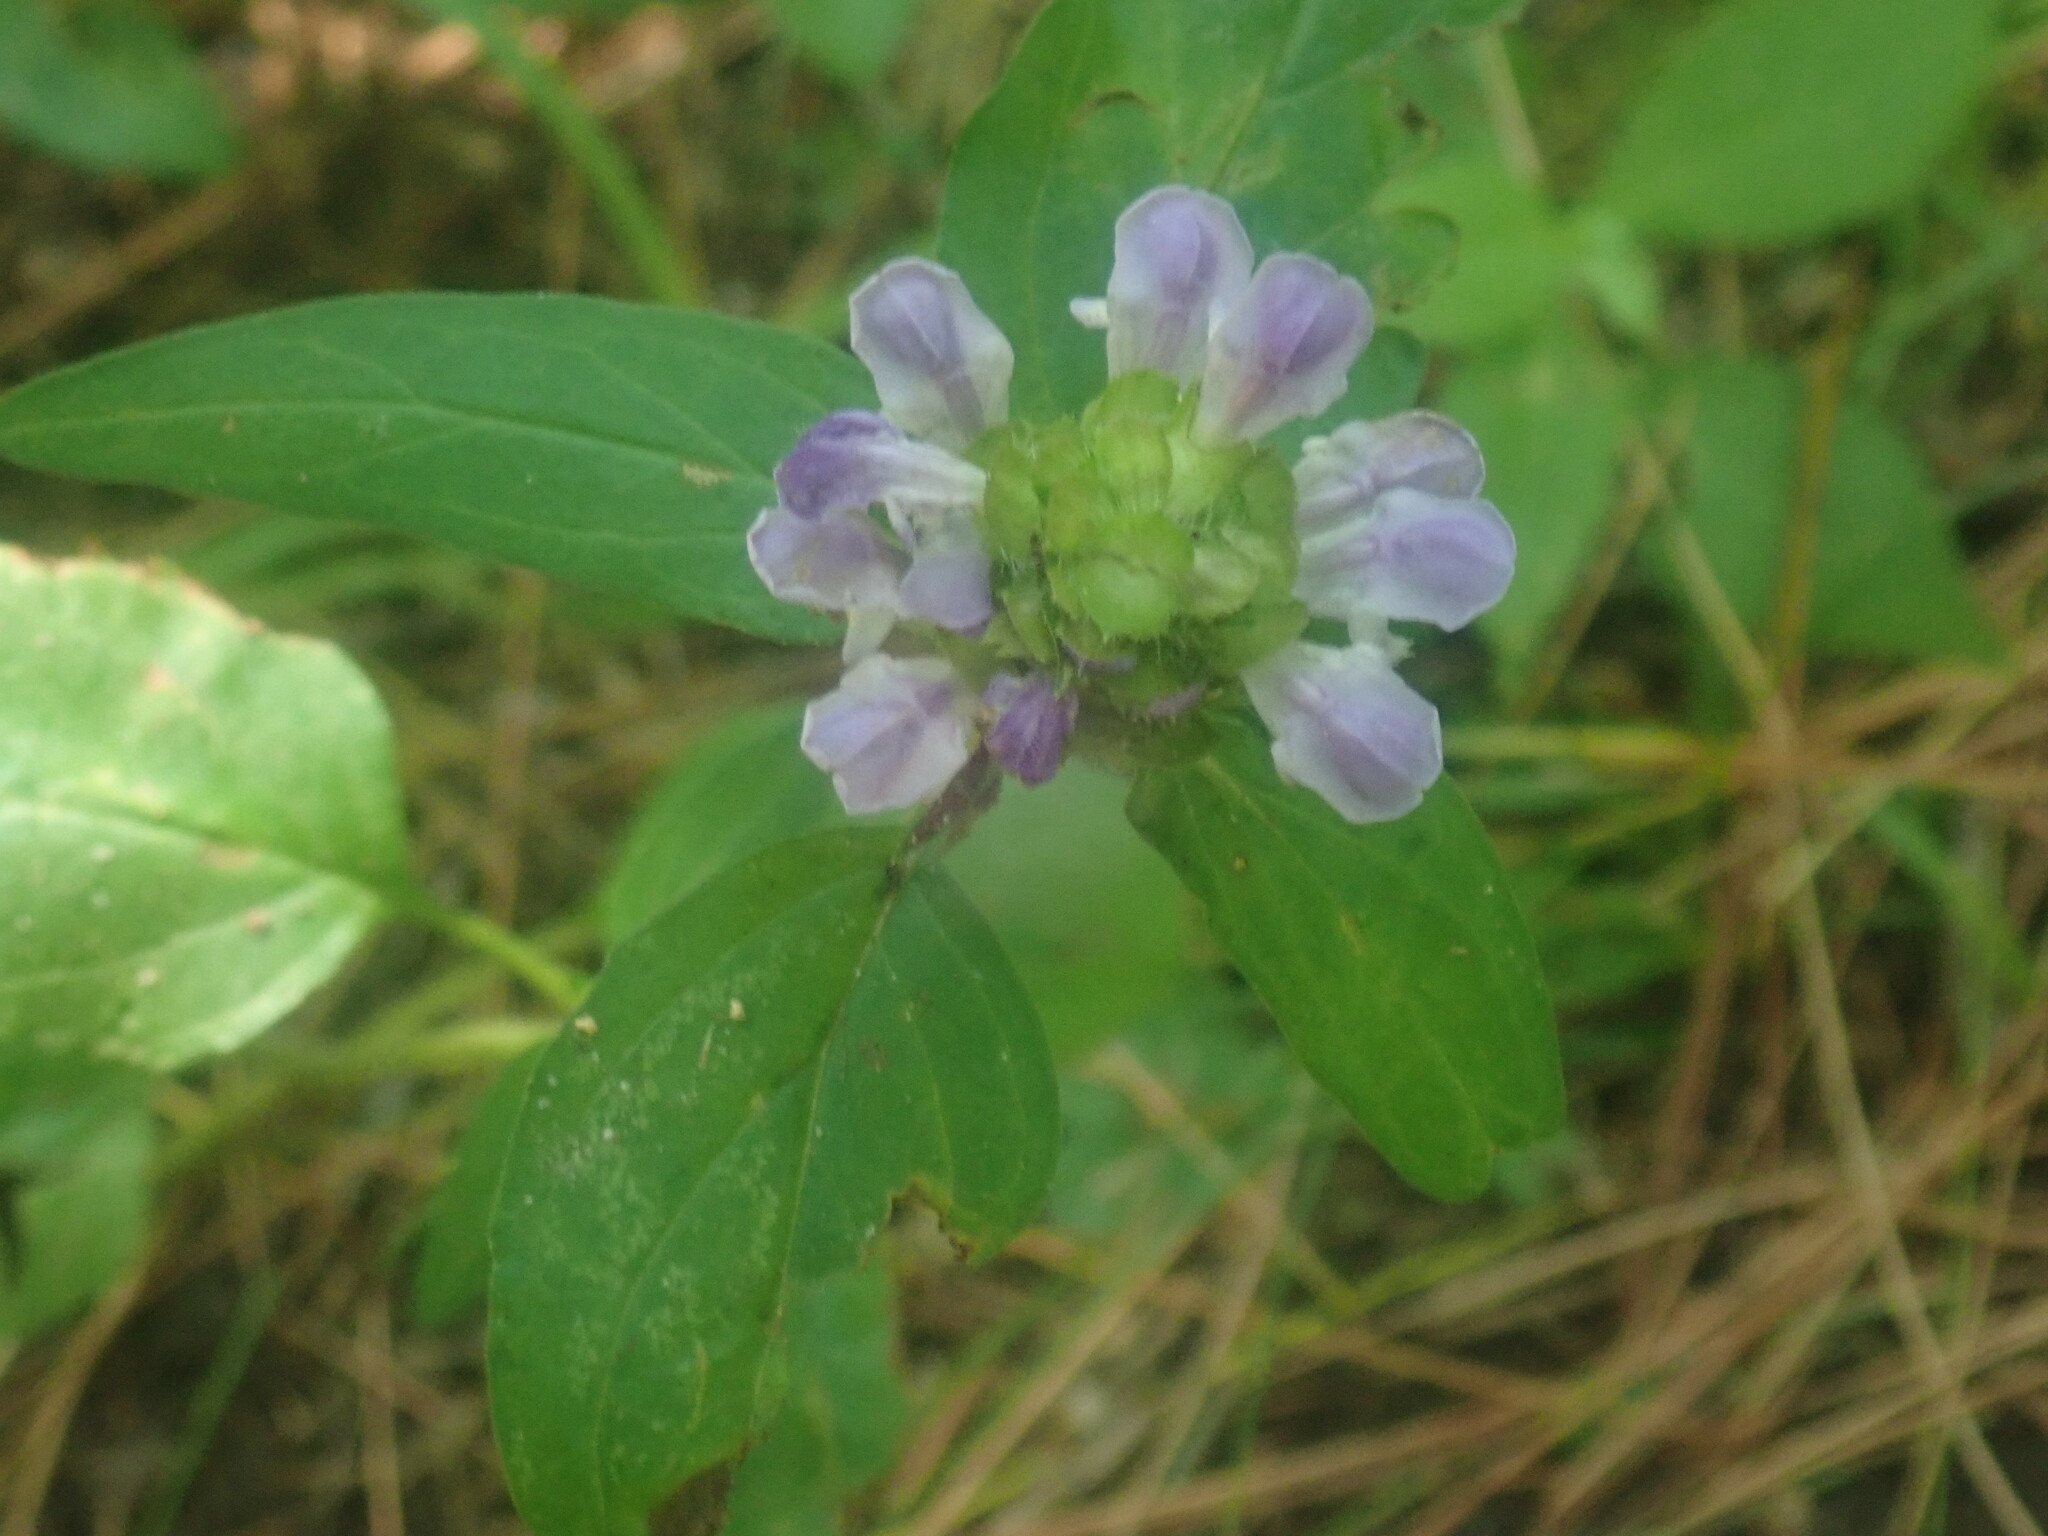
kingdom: Plantae
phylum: Tracheophyta
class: Magnoliopsida
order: Lamiales
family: Lamiaceae
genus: Prunella
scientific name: Prunella vulgaris
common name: Heal-all
